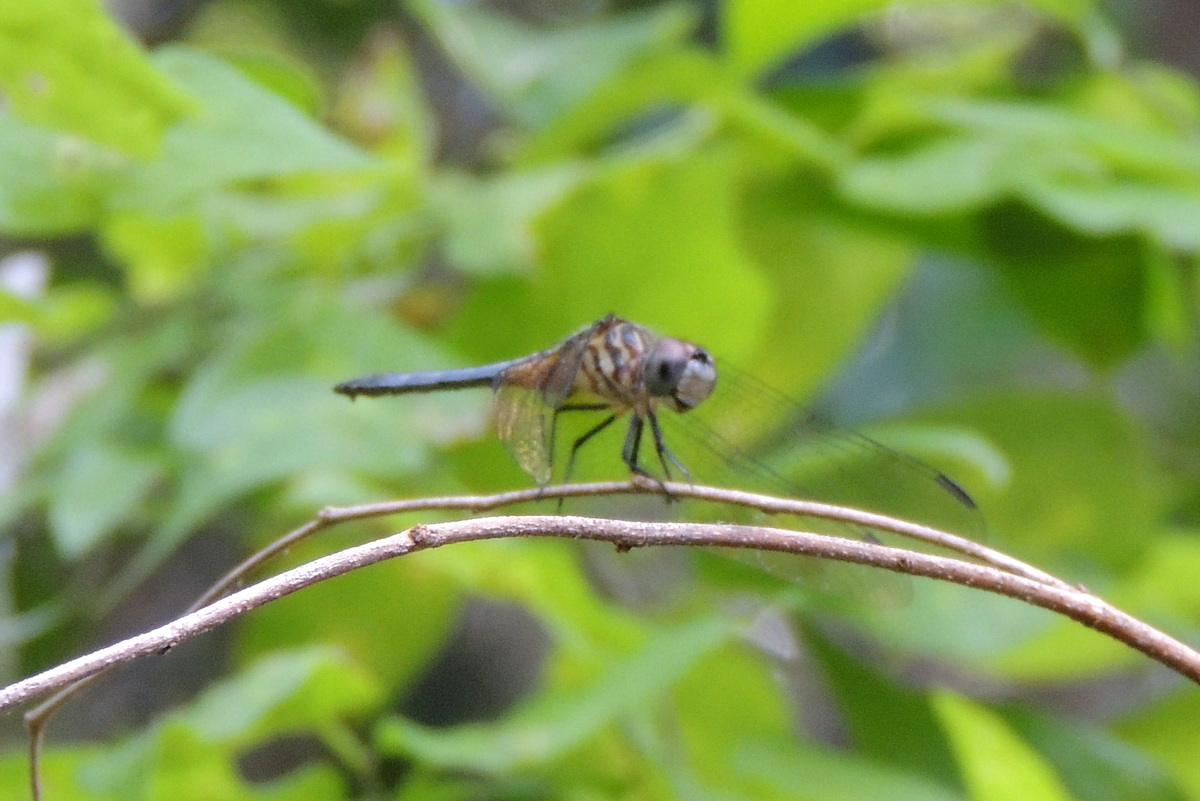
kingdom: Animalia
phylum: Arthropoda
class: Insecta
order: Odonata
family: Libellulidae
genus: Pachydiplax
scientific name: Pachydiplax longipennis
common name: Blue dasher
